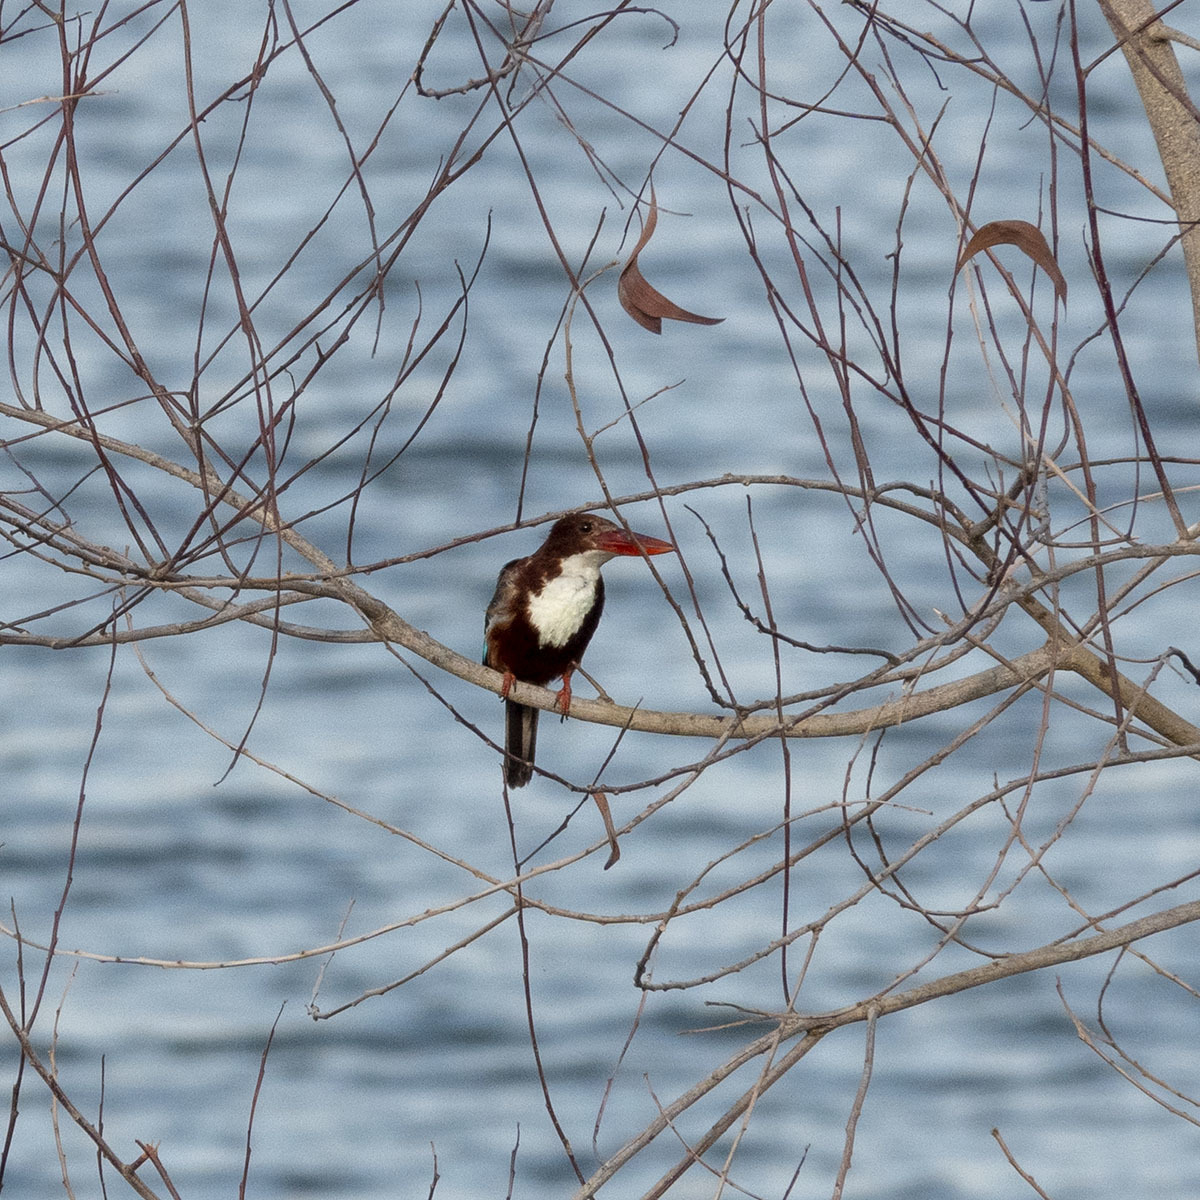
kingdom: Animalia
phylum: Chordata
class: Aves
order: Coraciiformes
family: Alcedinidae
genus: Halcyon
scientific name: Halcyon smyrnensis
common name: White-throated kingfisher
